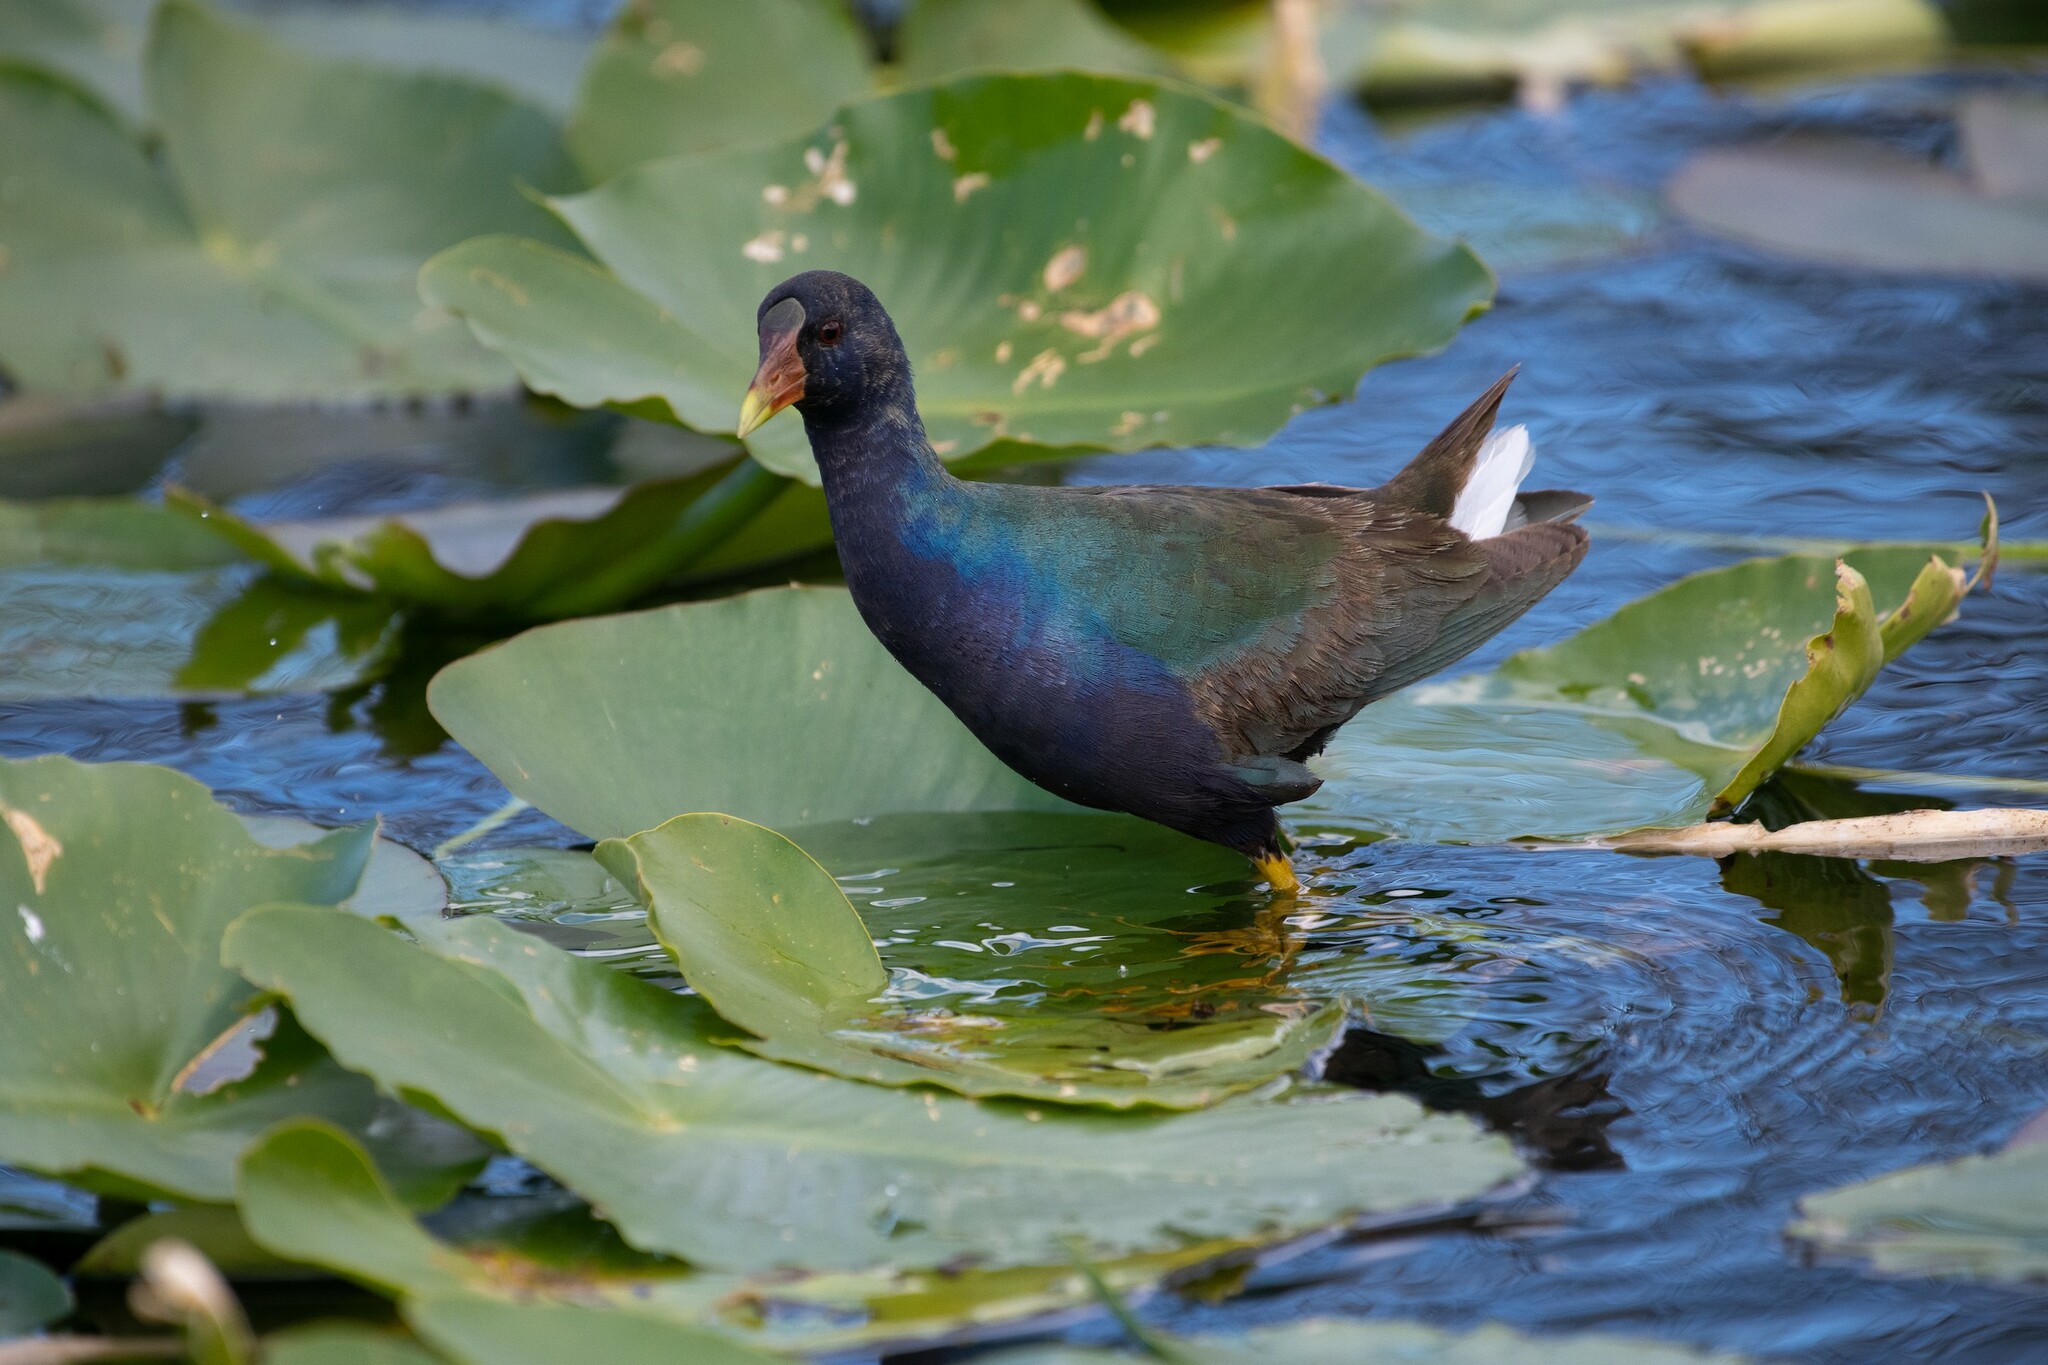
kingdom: Animalia
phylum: Chordata
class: Aves
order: Gruiformes
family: Rallidae
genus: Porphyrio
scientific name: Porphyrio martinica
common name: Purple gallinule
